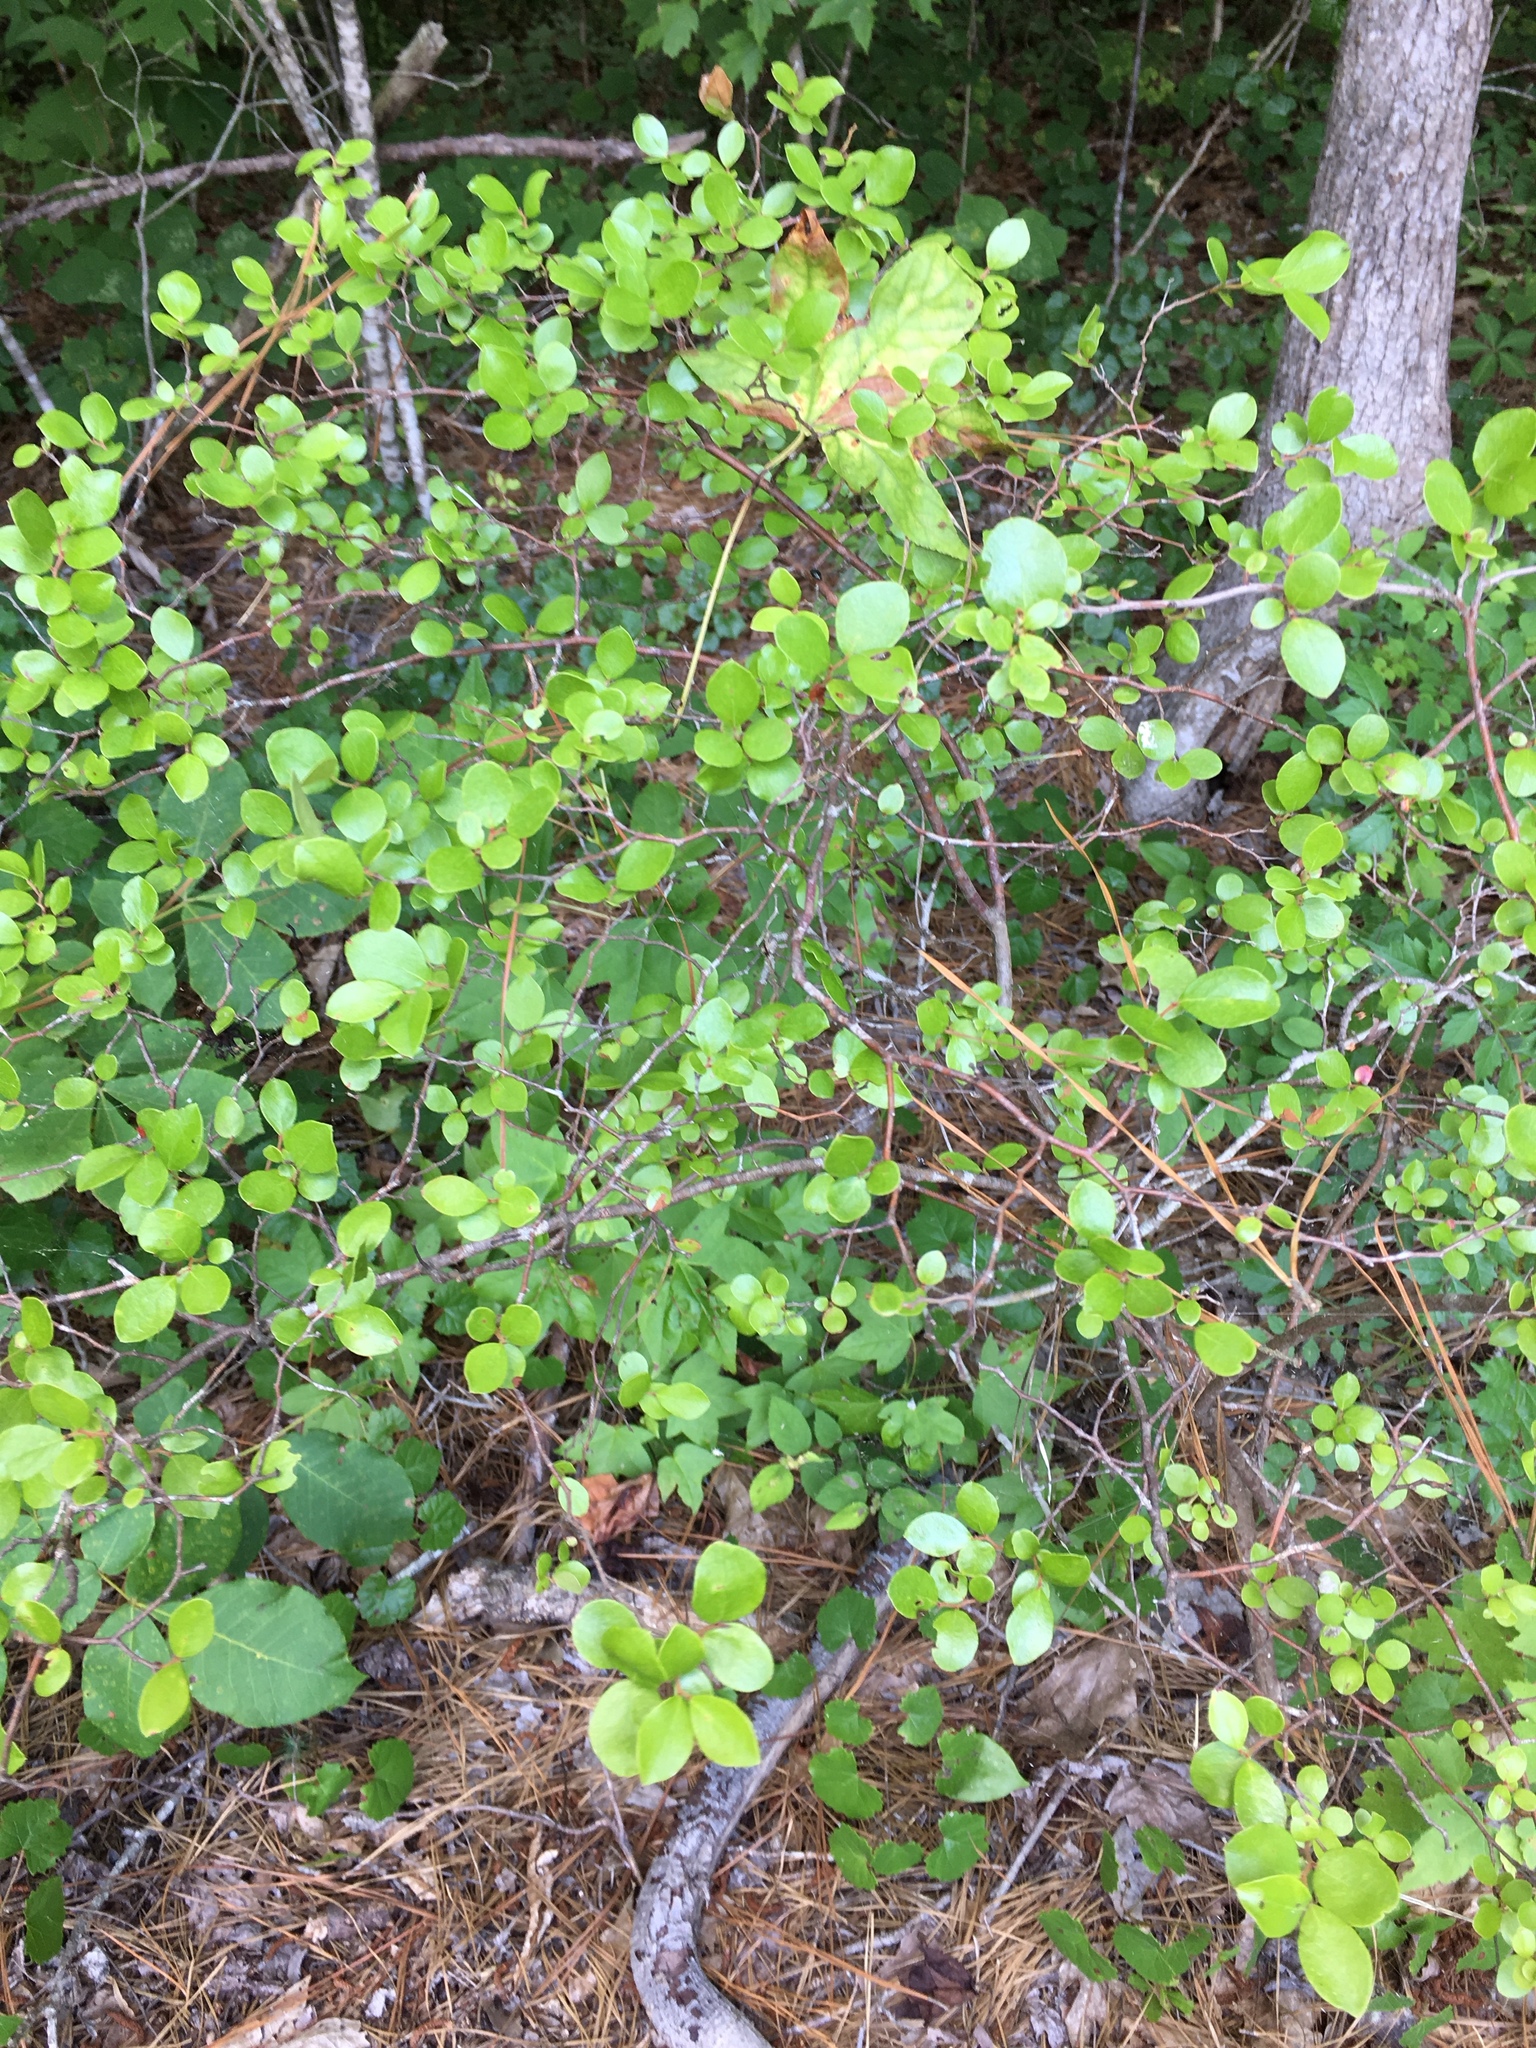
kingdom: Plantae
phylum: Tracheophyta
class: Magnoliopsida
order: Ericales
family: Ericaceae
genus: Vaccinium
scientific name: Vaccinium arboreum
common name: Farkleberry
